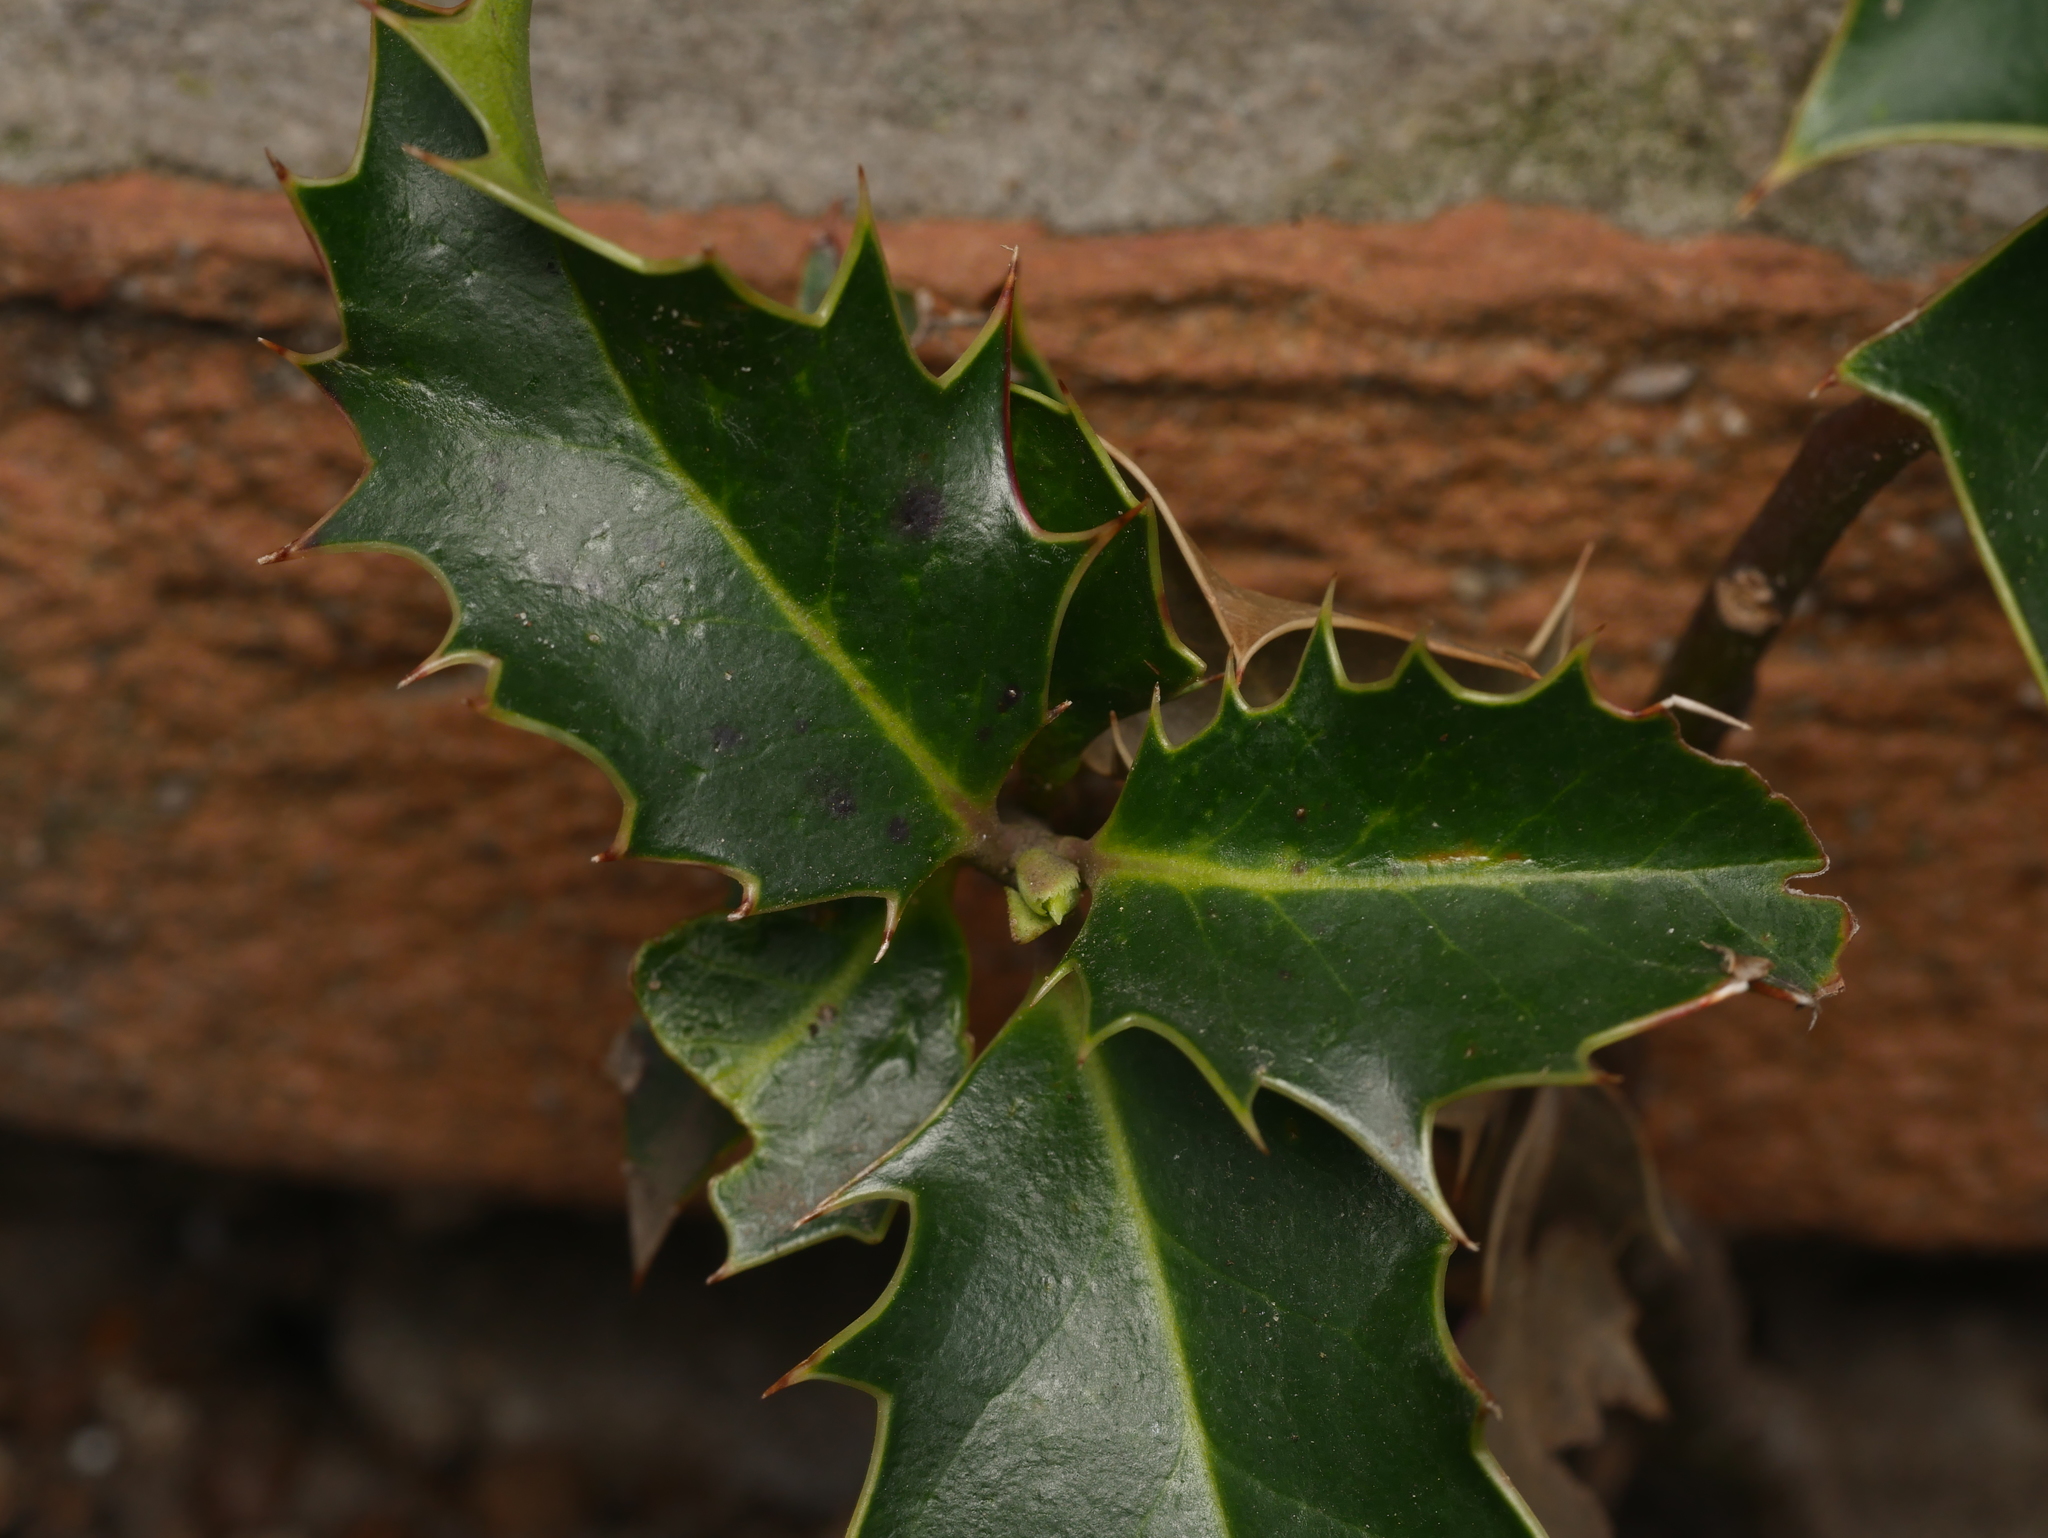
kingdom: Plantae
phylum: Tracheophyta
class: Magnoliopsida
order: Aquifoliales
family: Aquifoliaceae
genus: Ilex
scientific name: Ilex aquifolium
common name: English holly
